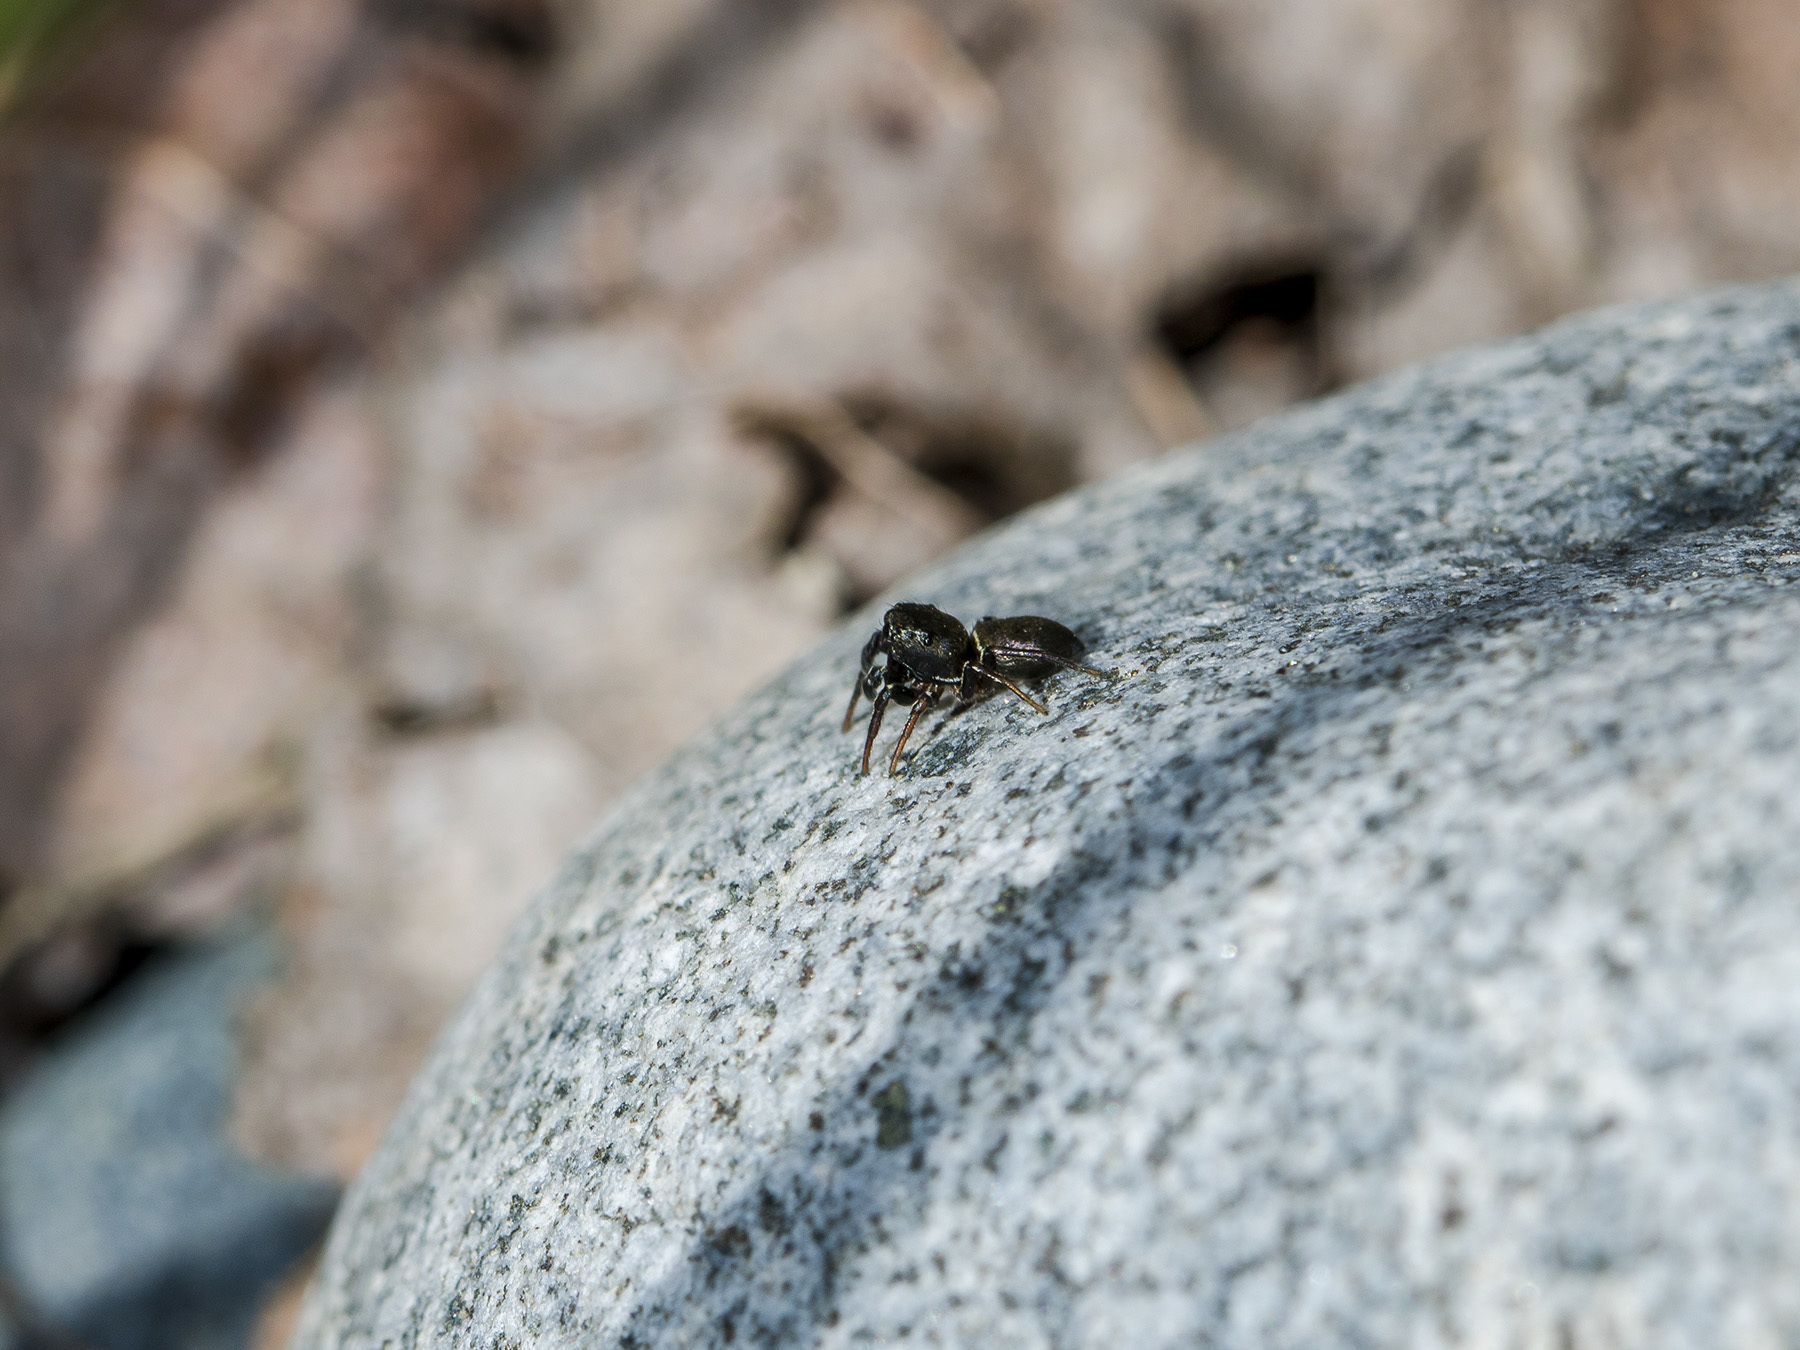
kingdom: Animalia
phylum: Arthropoda
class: Arachnida
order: Araneae
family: Salticidae
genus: Heliophanus
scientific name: Heliophanus auratus
